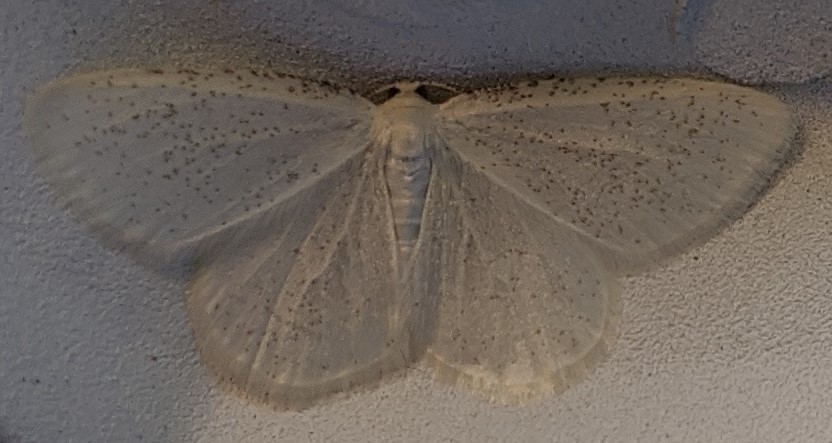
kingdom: Animalia
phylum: Arthropoda
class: Insecta
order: Lepidoptera
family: Geometridae
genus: Protitame
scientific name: Protitame virginalis
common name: Virgin moth
